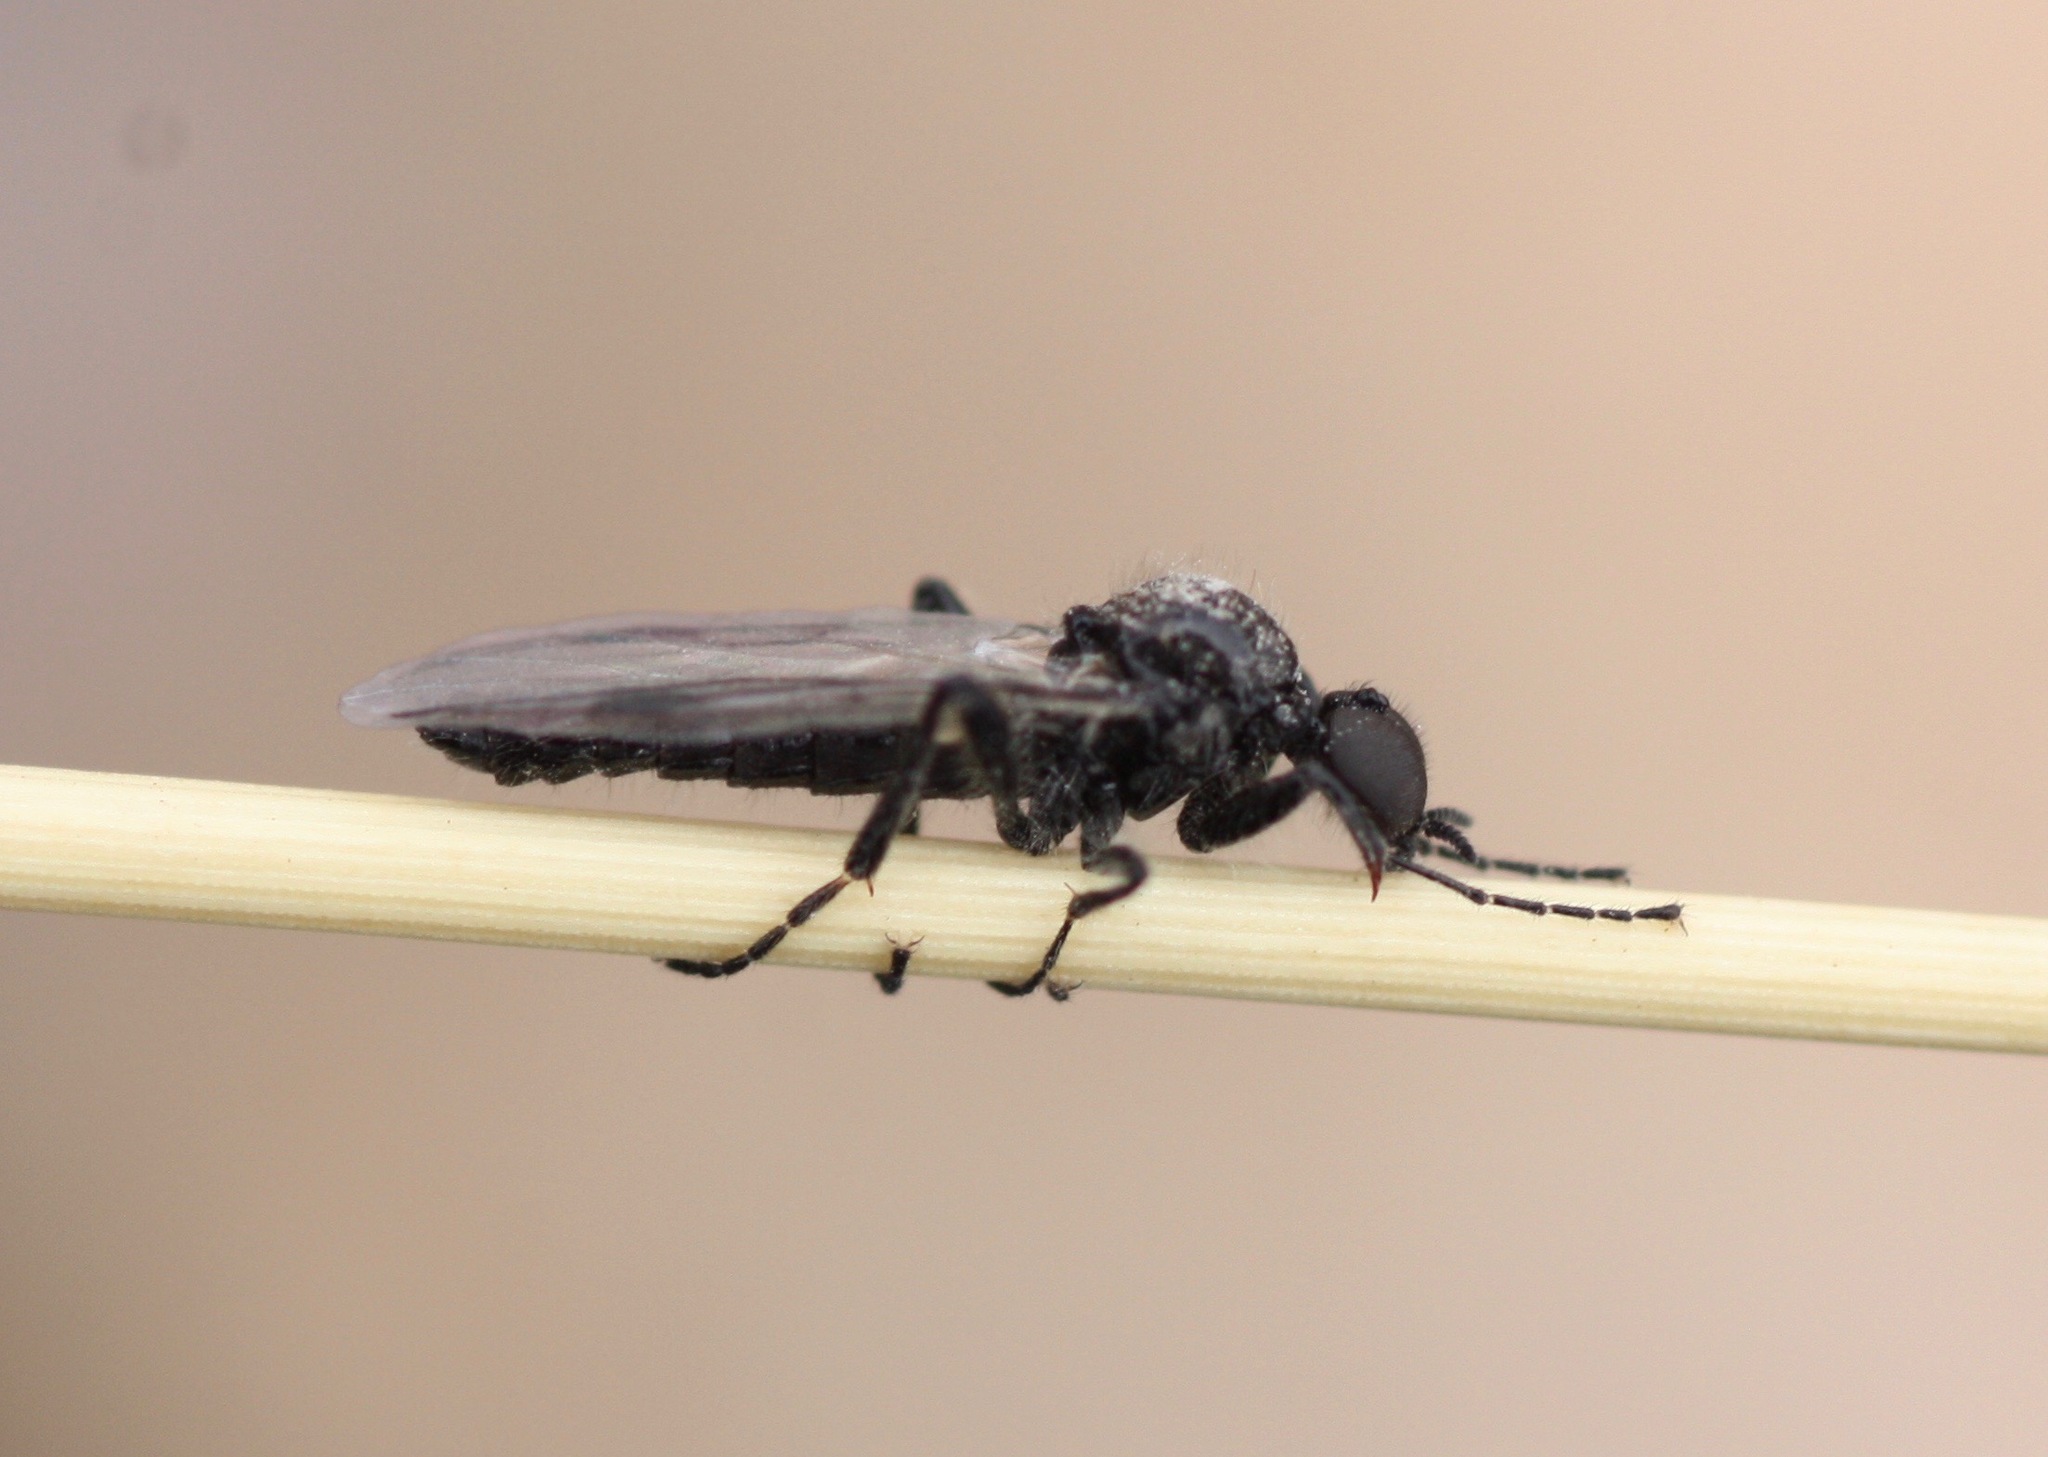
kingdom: Animalia
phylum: Arthropoda
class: Insecta
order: Diptera
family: Bibionidae
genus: Bibiodes
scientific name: Bibiodes halteralis
